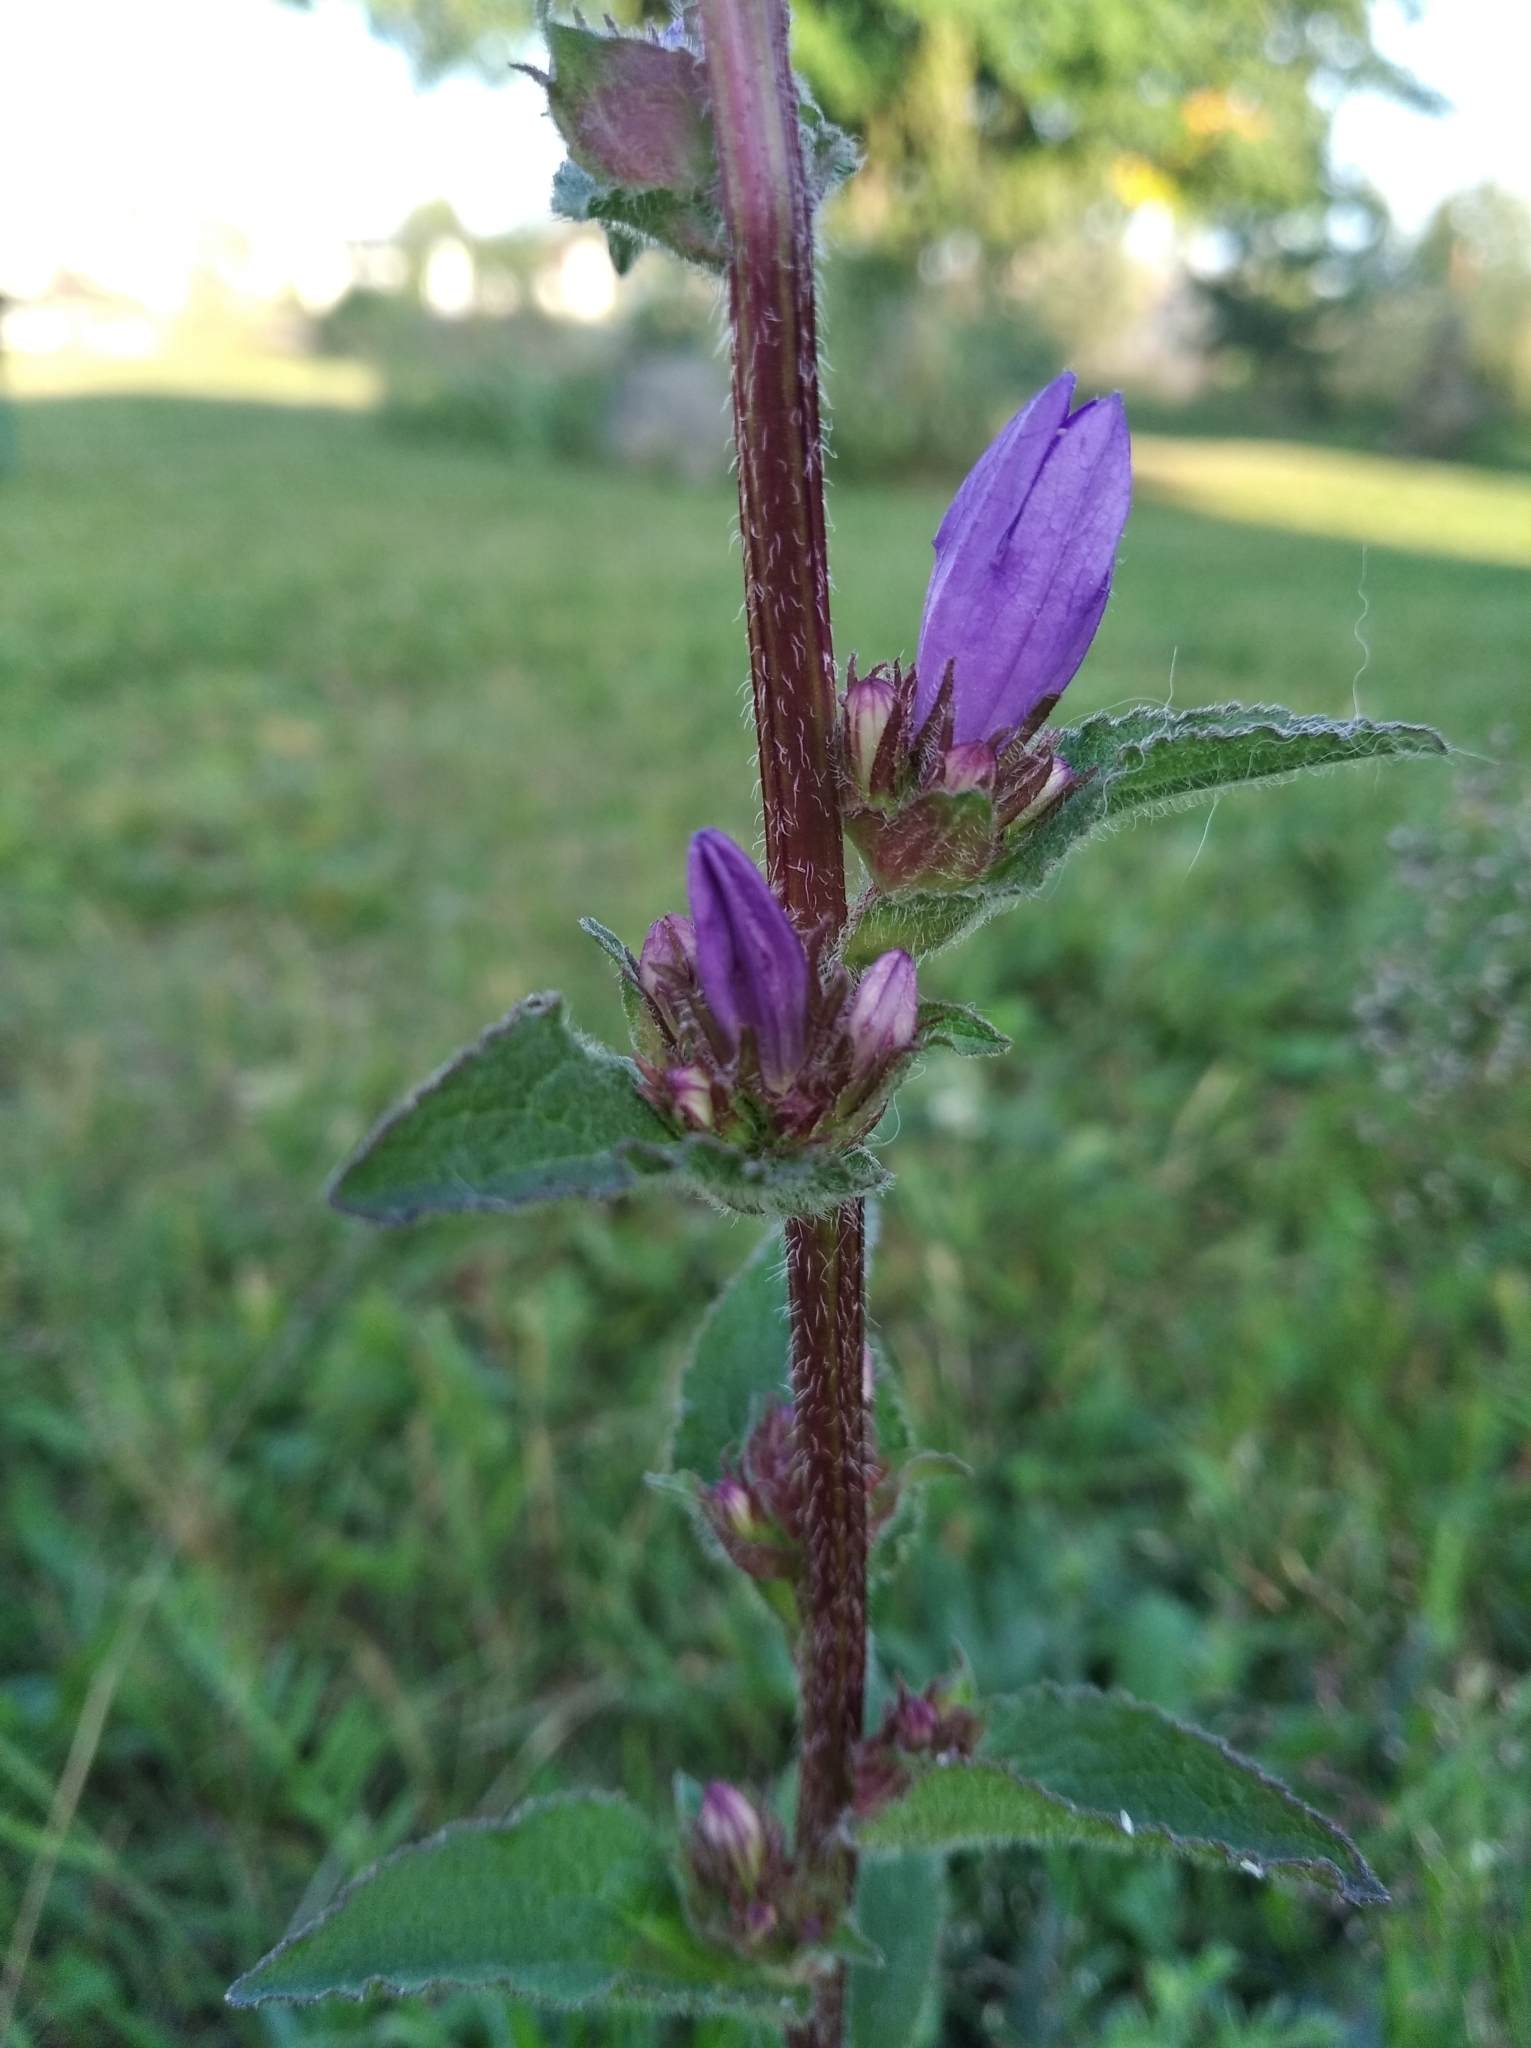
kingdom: Plantae
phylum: Tracheophyta
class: Magnoliopsida
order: Asterales
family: Campanulaceae
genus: Campanula
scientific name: Campanula glomerata
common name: Clustered bellflower
